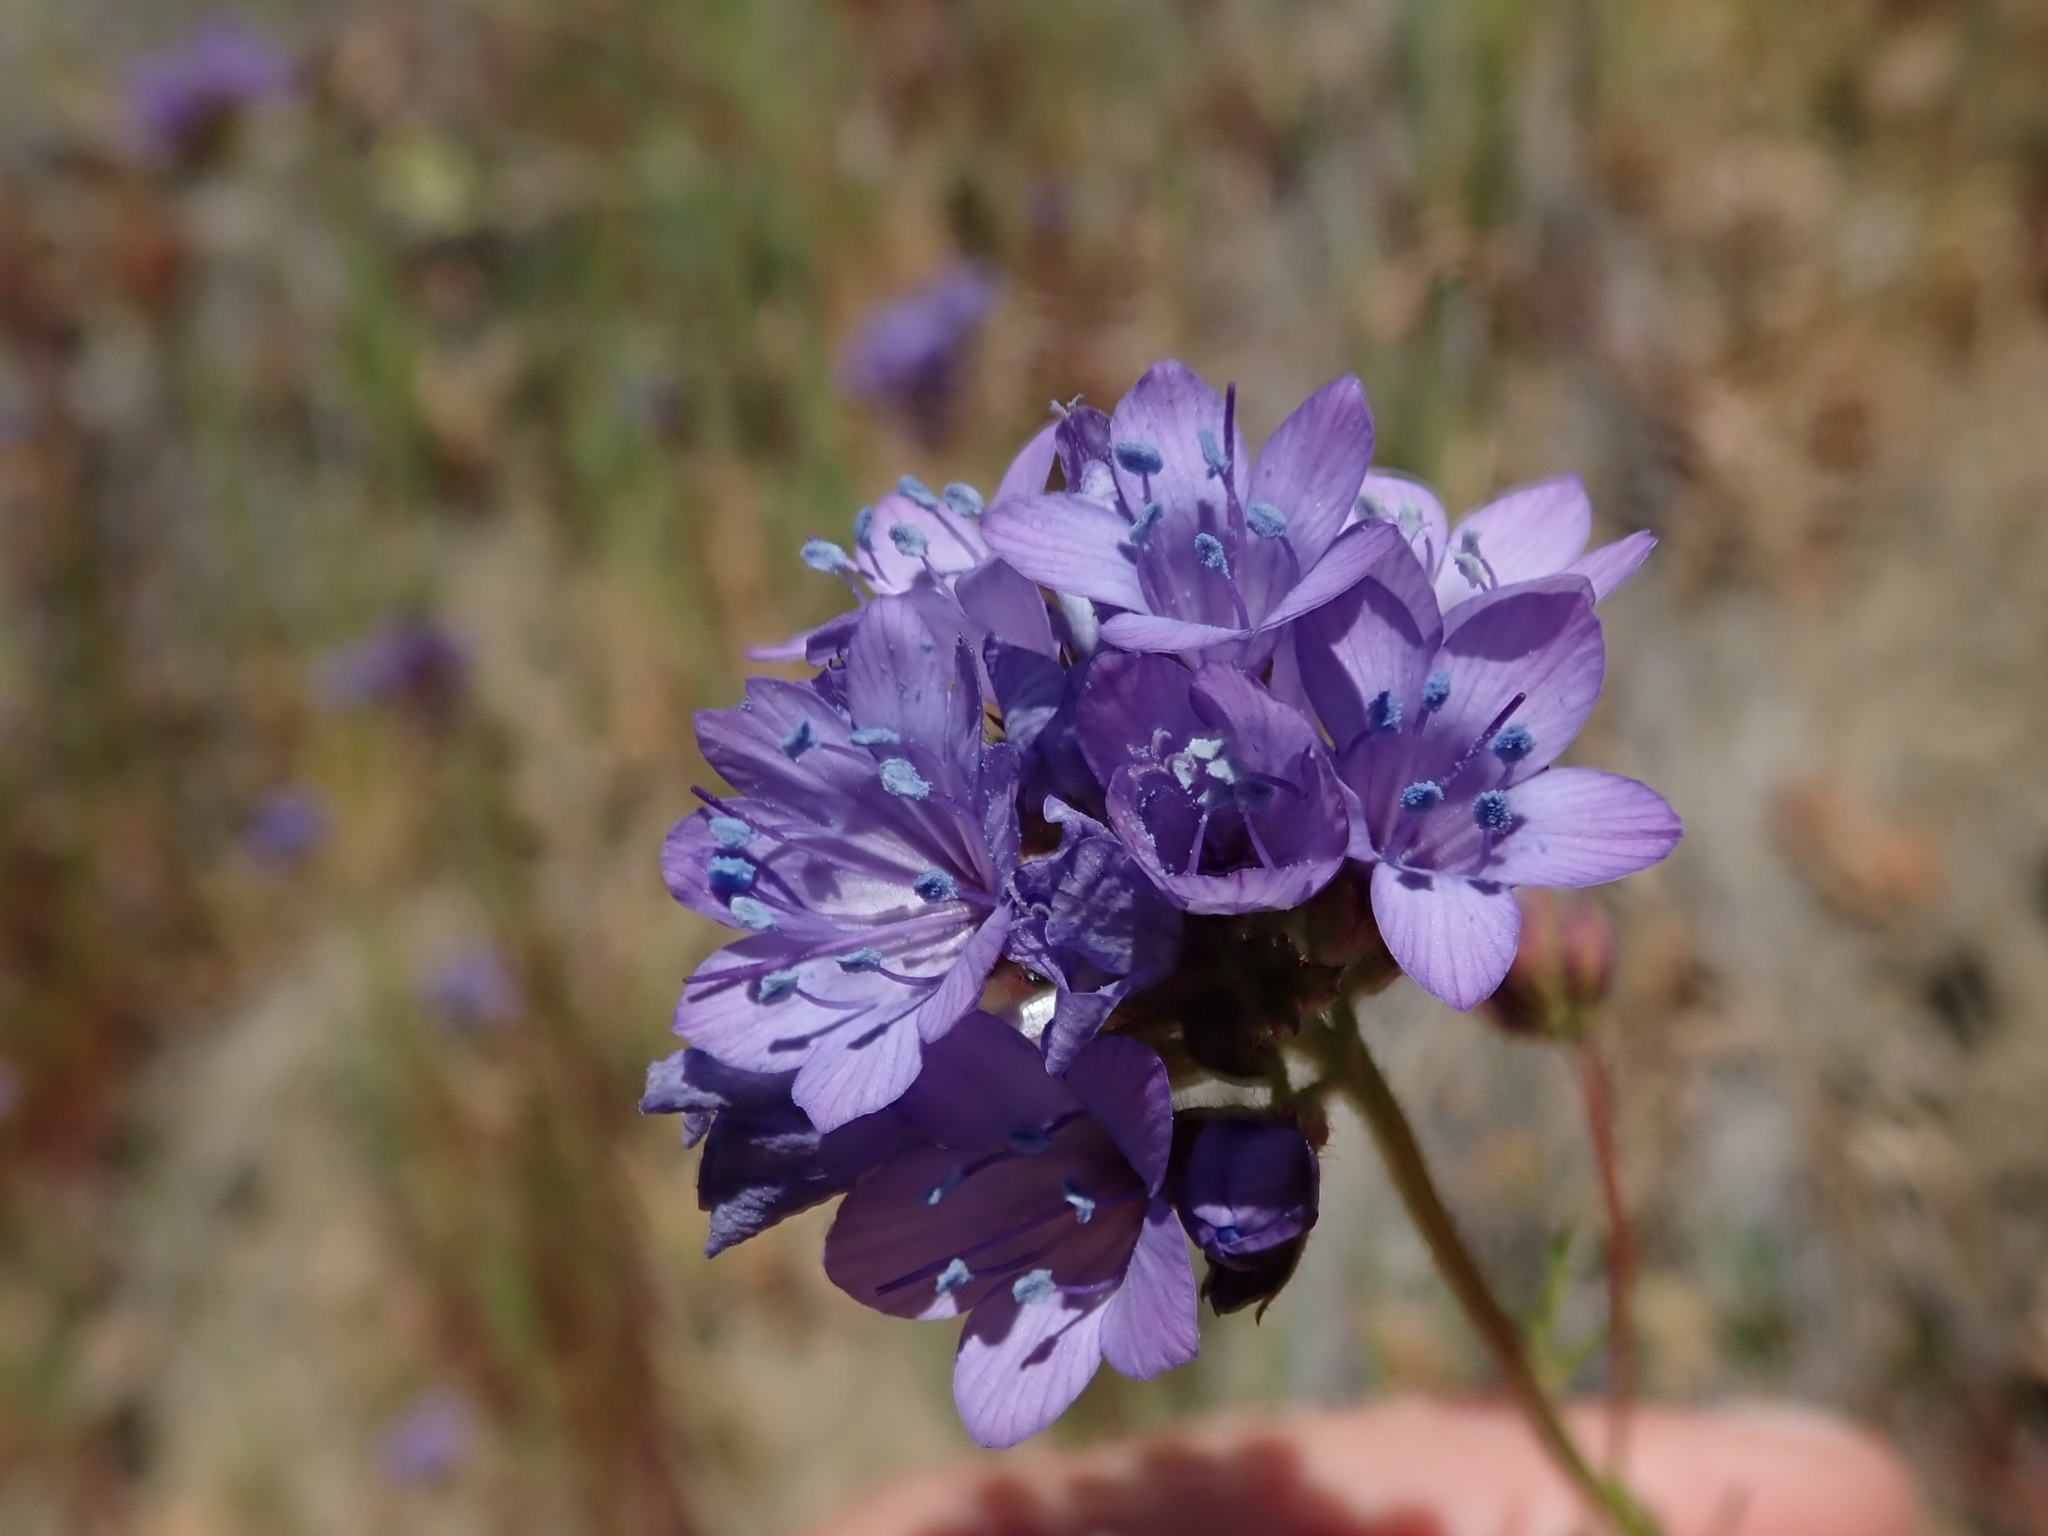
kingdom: Plantae
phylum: Tracheophyta
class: Magnoliopsida
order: Ericales
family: Polemoniaceae
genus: Gilia
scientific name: Gilia achilleifolia
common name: California gily-flower
